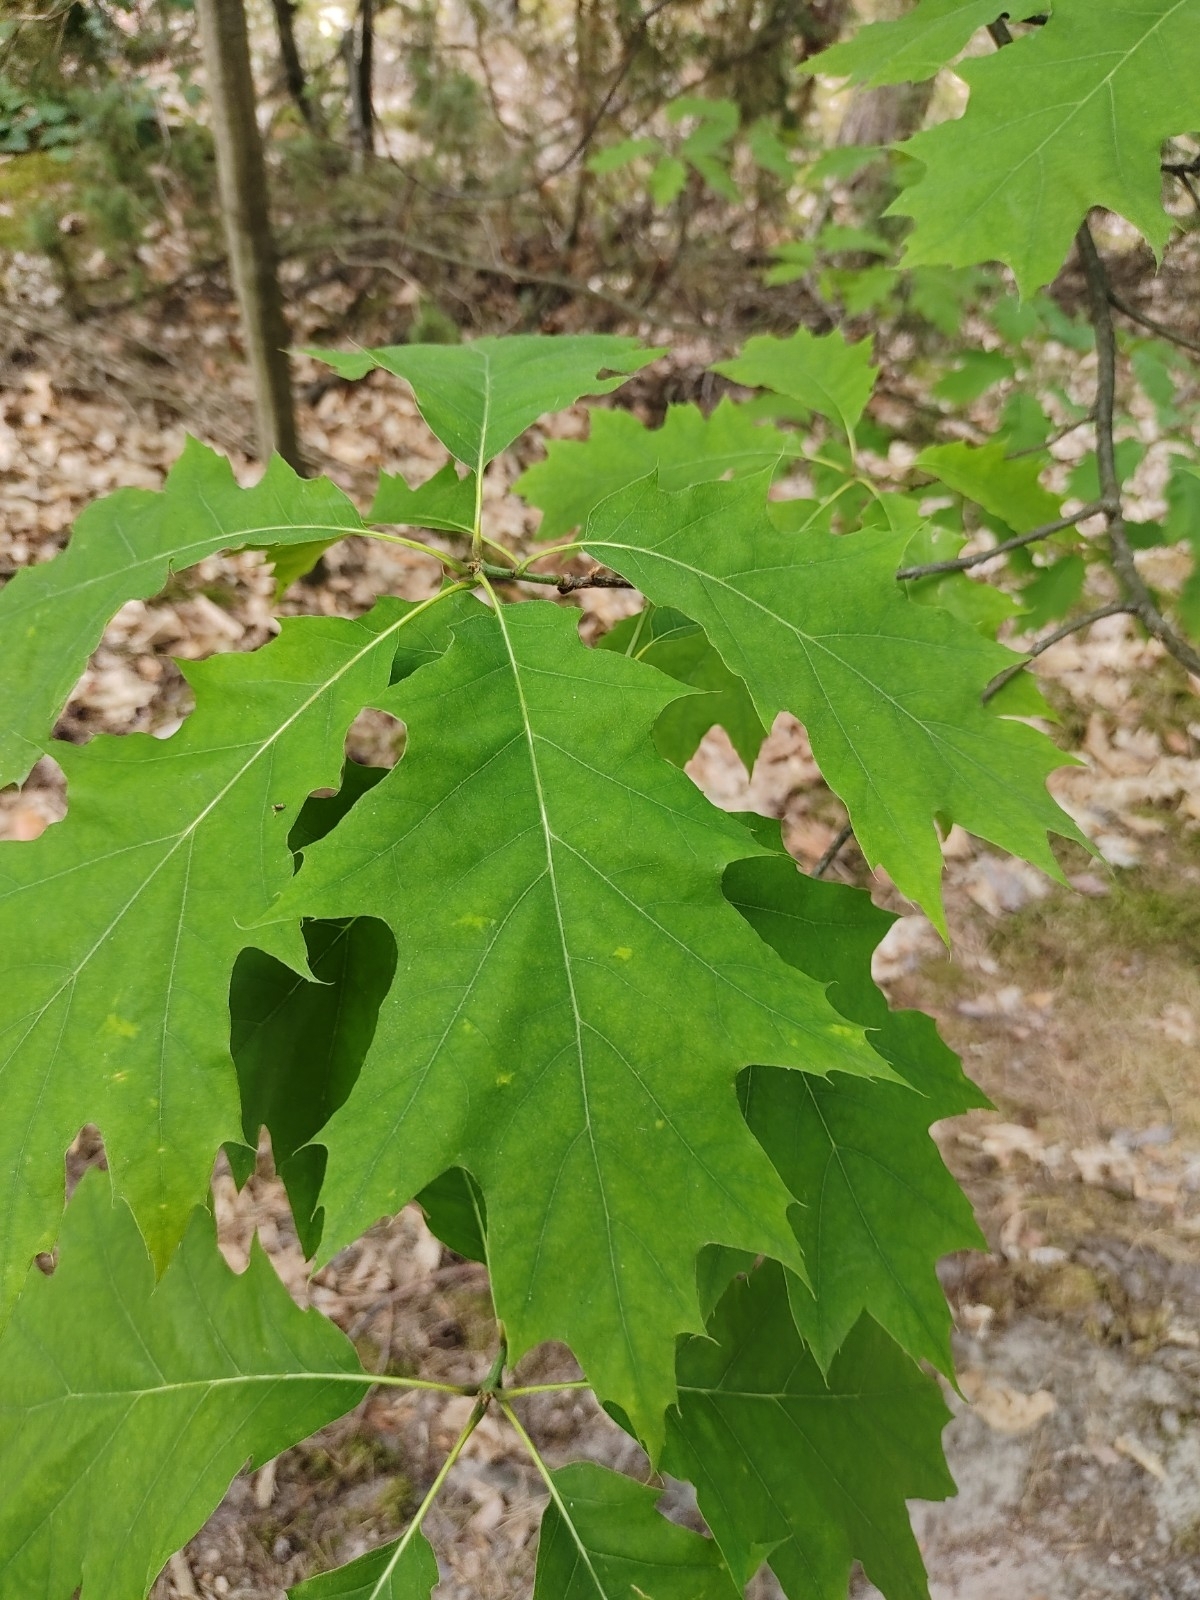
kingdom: Plantae
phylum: Tracheophyta
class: Magnoliopsida
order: Fagales
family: Fagaceae
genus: Quercus
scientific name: Quercus rubra
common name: Red oak
